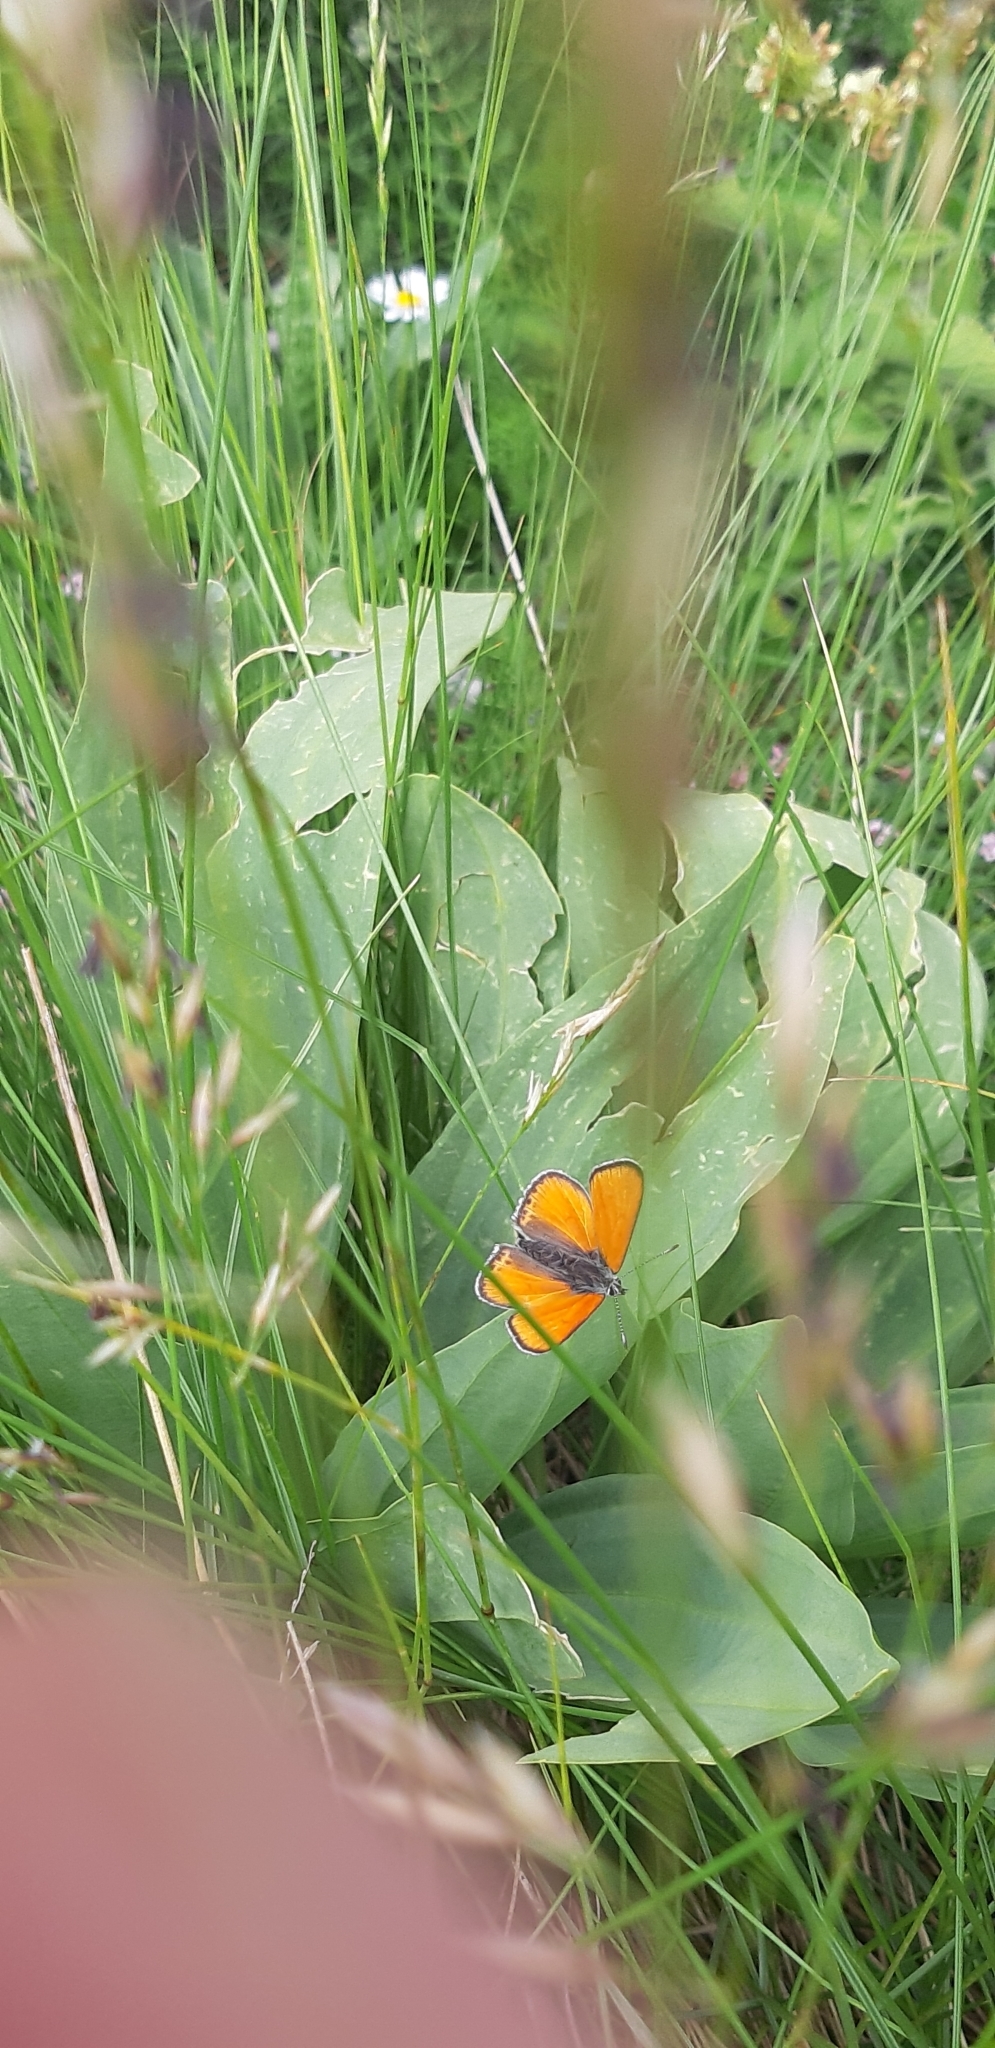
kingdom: Animalia
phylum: Arthropoda
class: Insecta
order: Lepidoptera
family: Lycaenidae
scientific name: Lycaenidae
